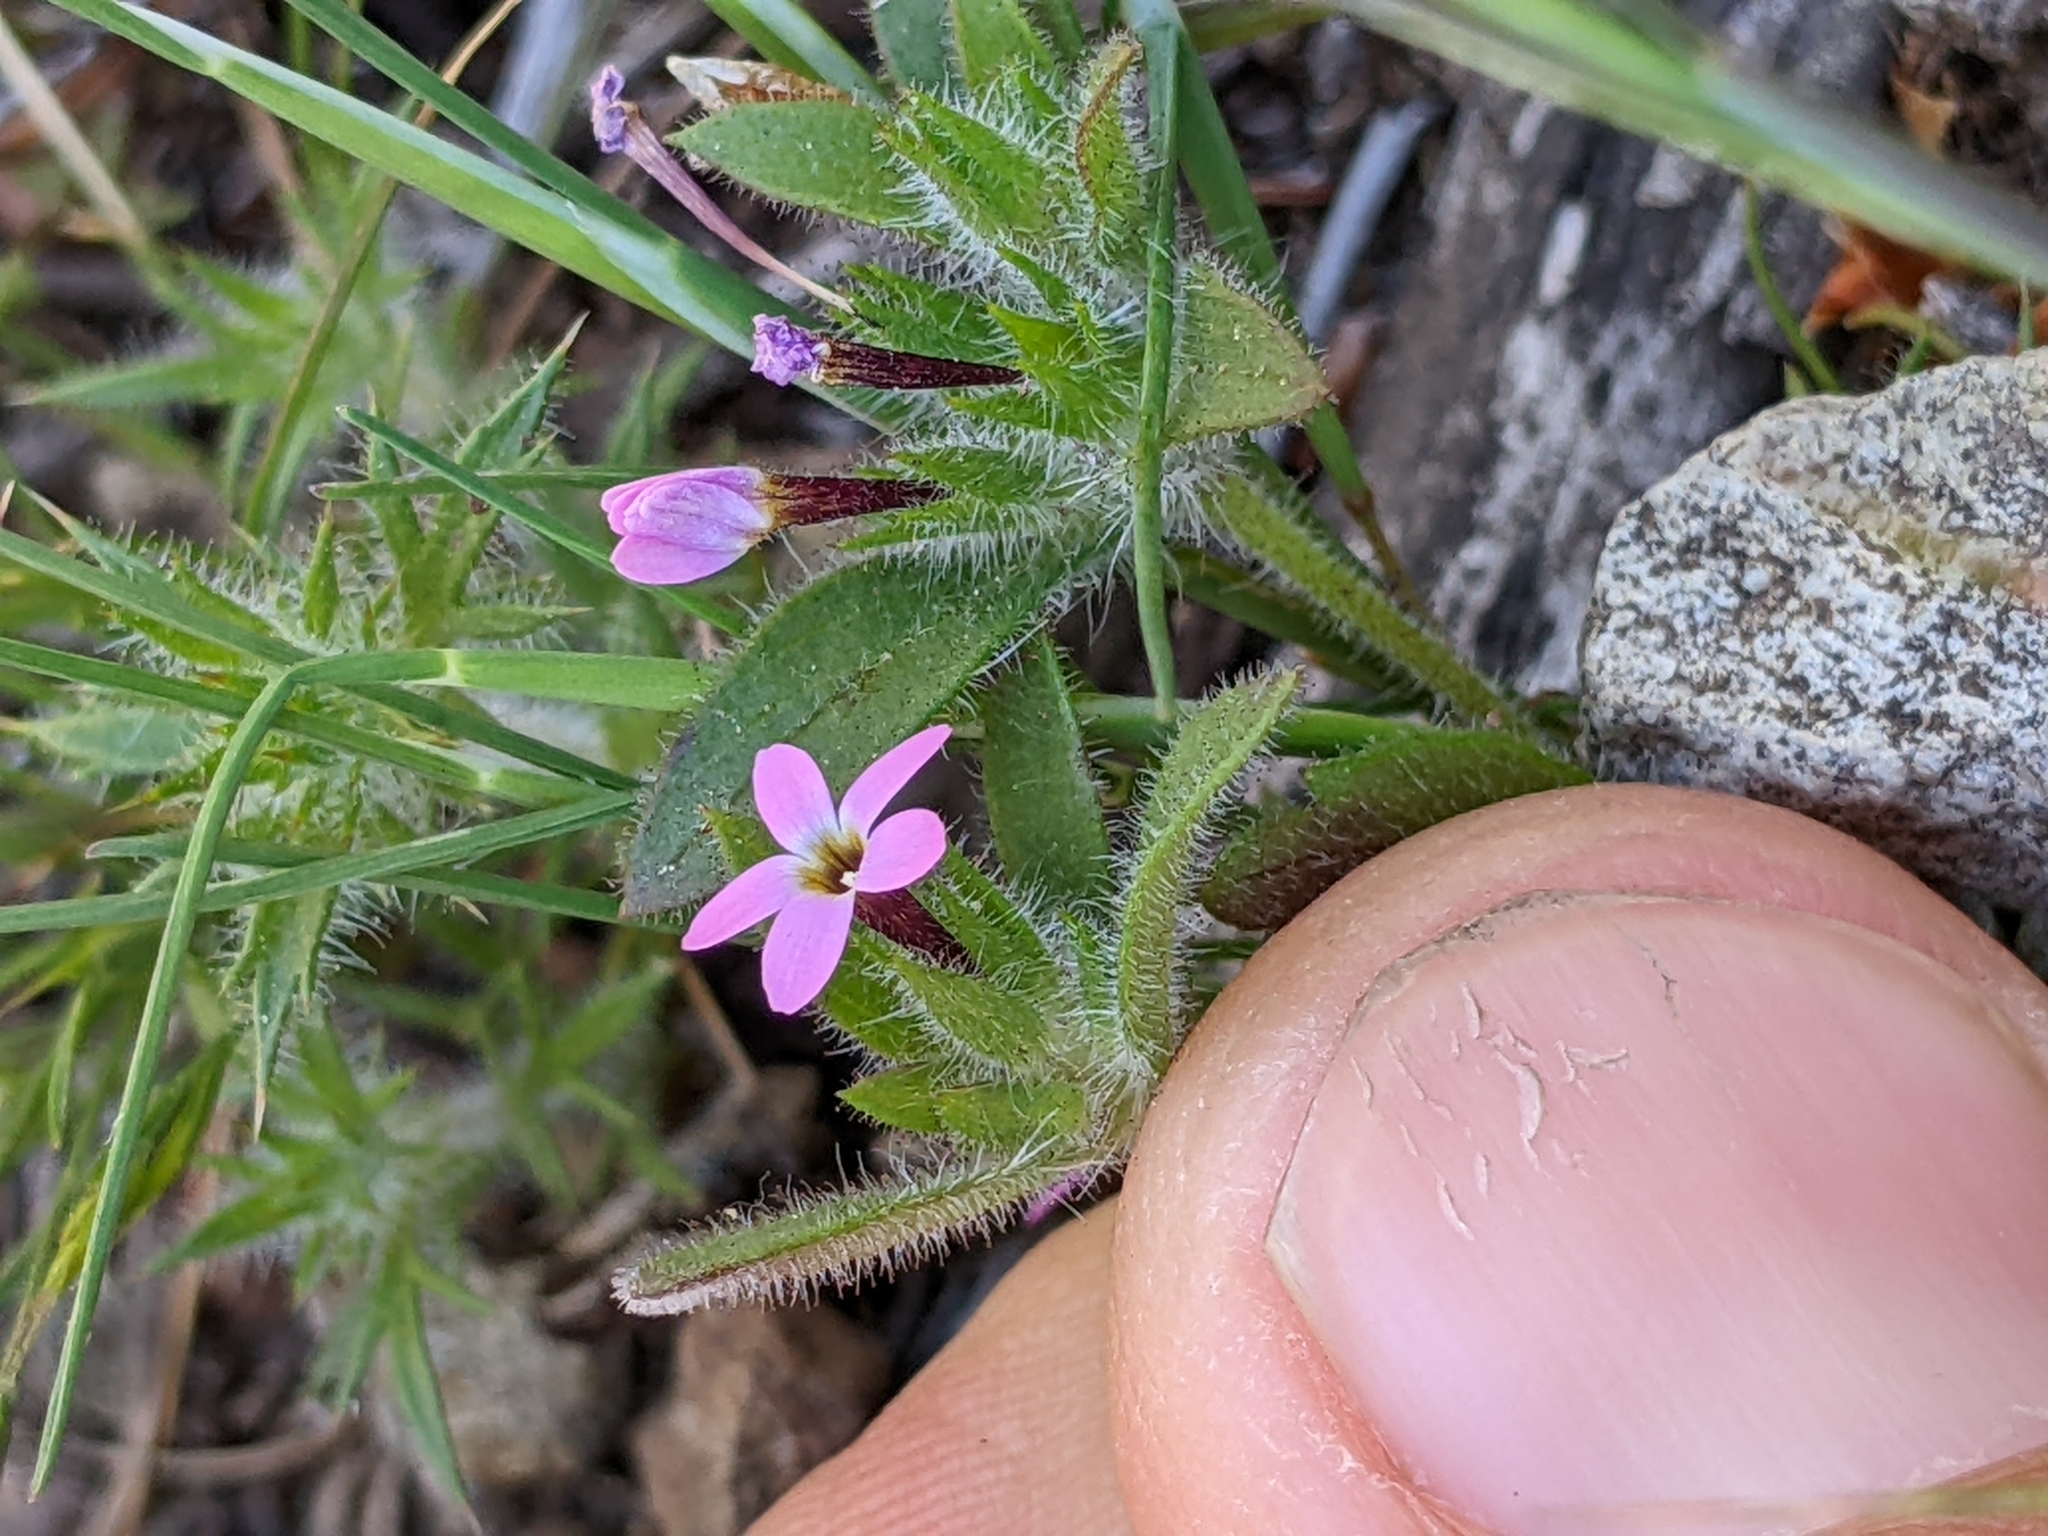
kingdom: Plantae
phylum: Tracheophyta
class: Magnoliopsida
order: Ericales
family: Polemoniaceae
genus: Collomia
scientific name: Collomia heterophylla
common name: Variable-leaved collomia
